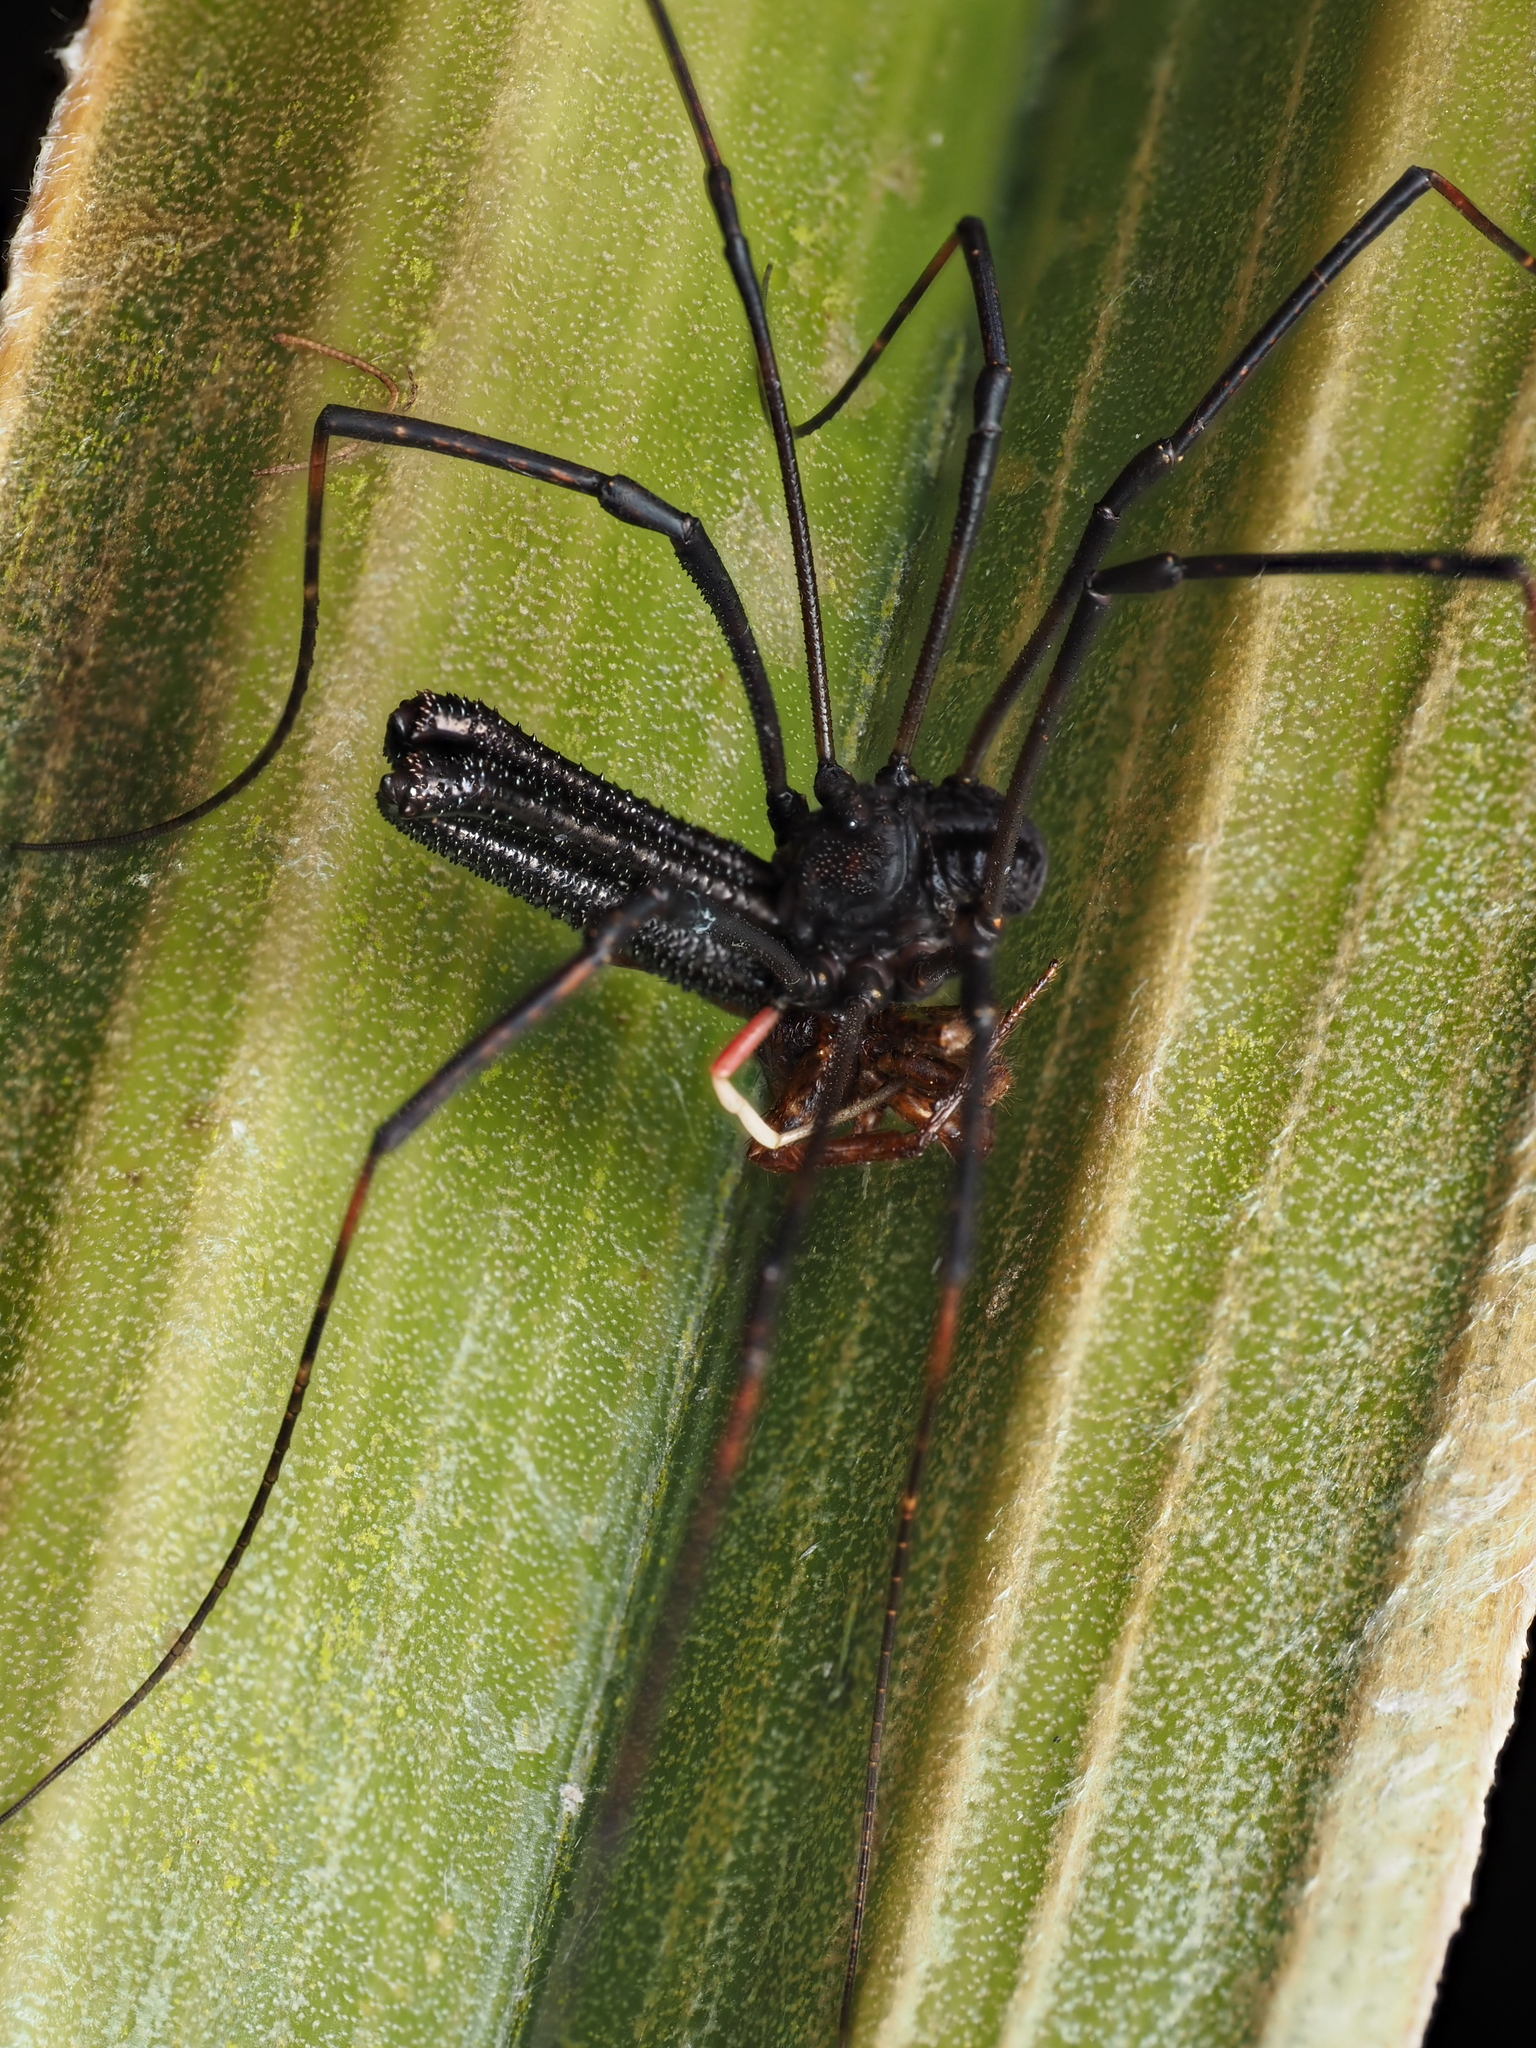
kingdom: Animalia
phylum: Arthropoda
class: Arachnida
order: Opiliones
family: Neopilionidae
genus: Forsteropsalis
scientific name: Forsteropsalis inconstans
